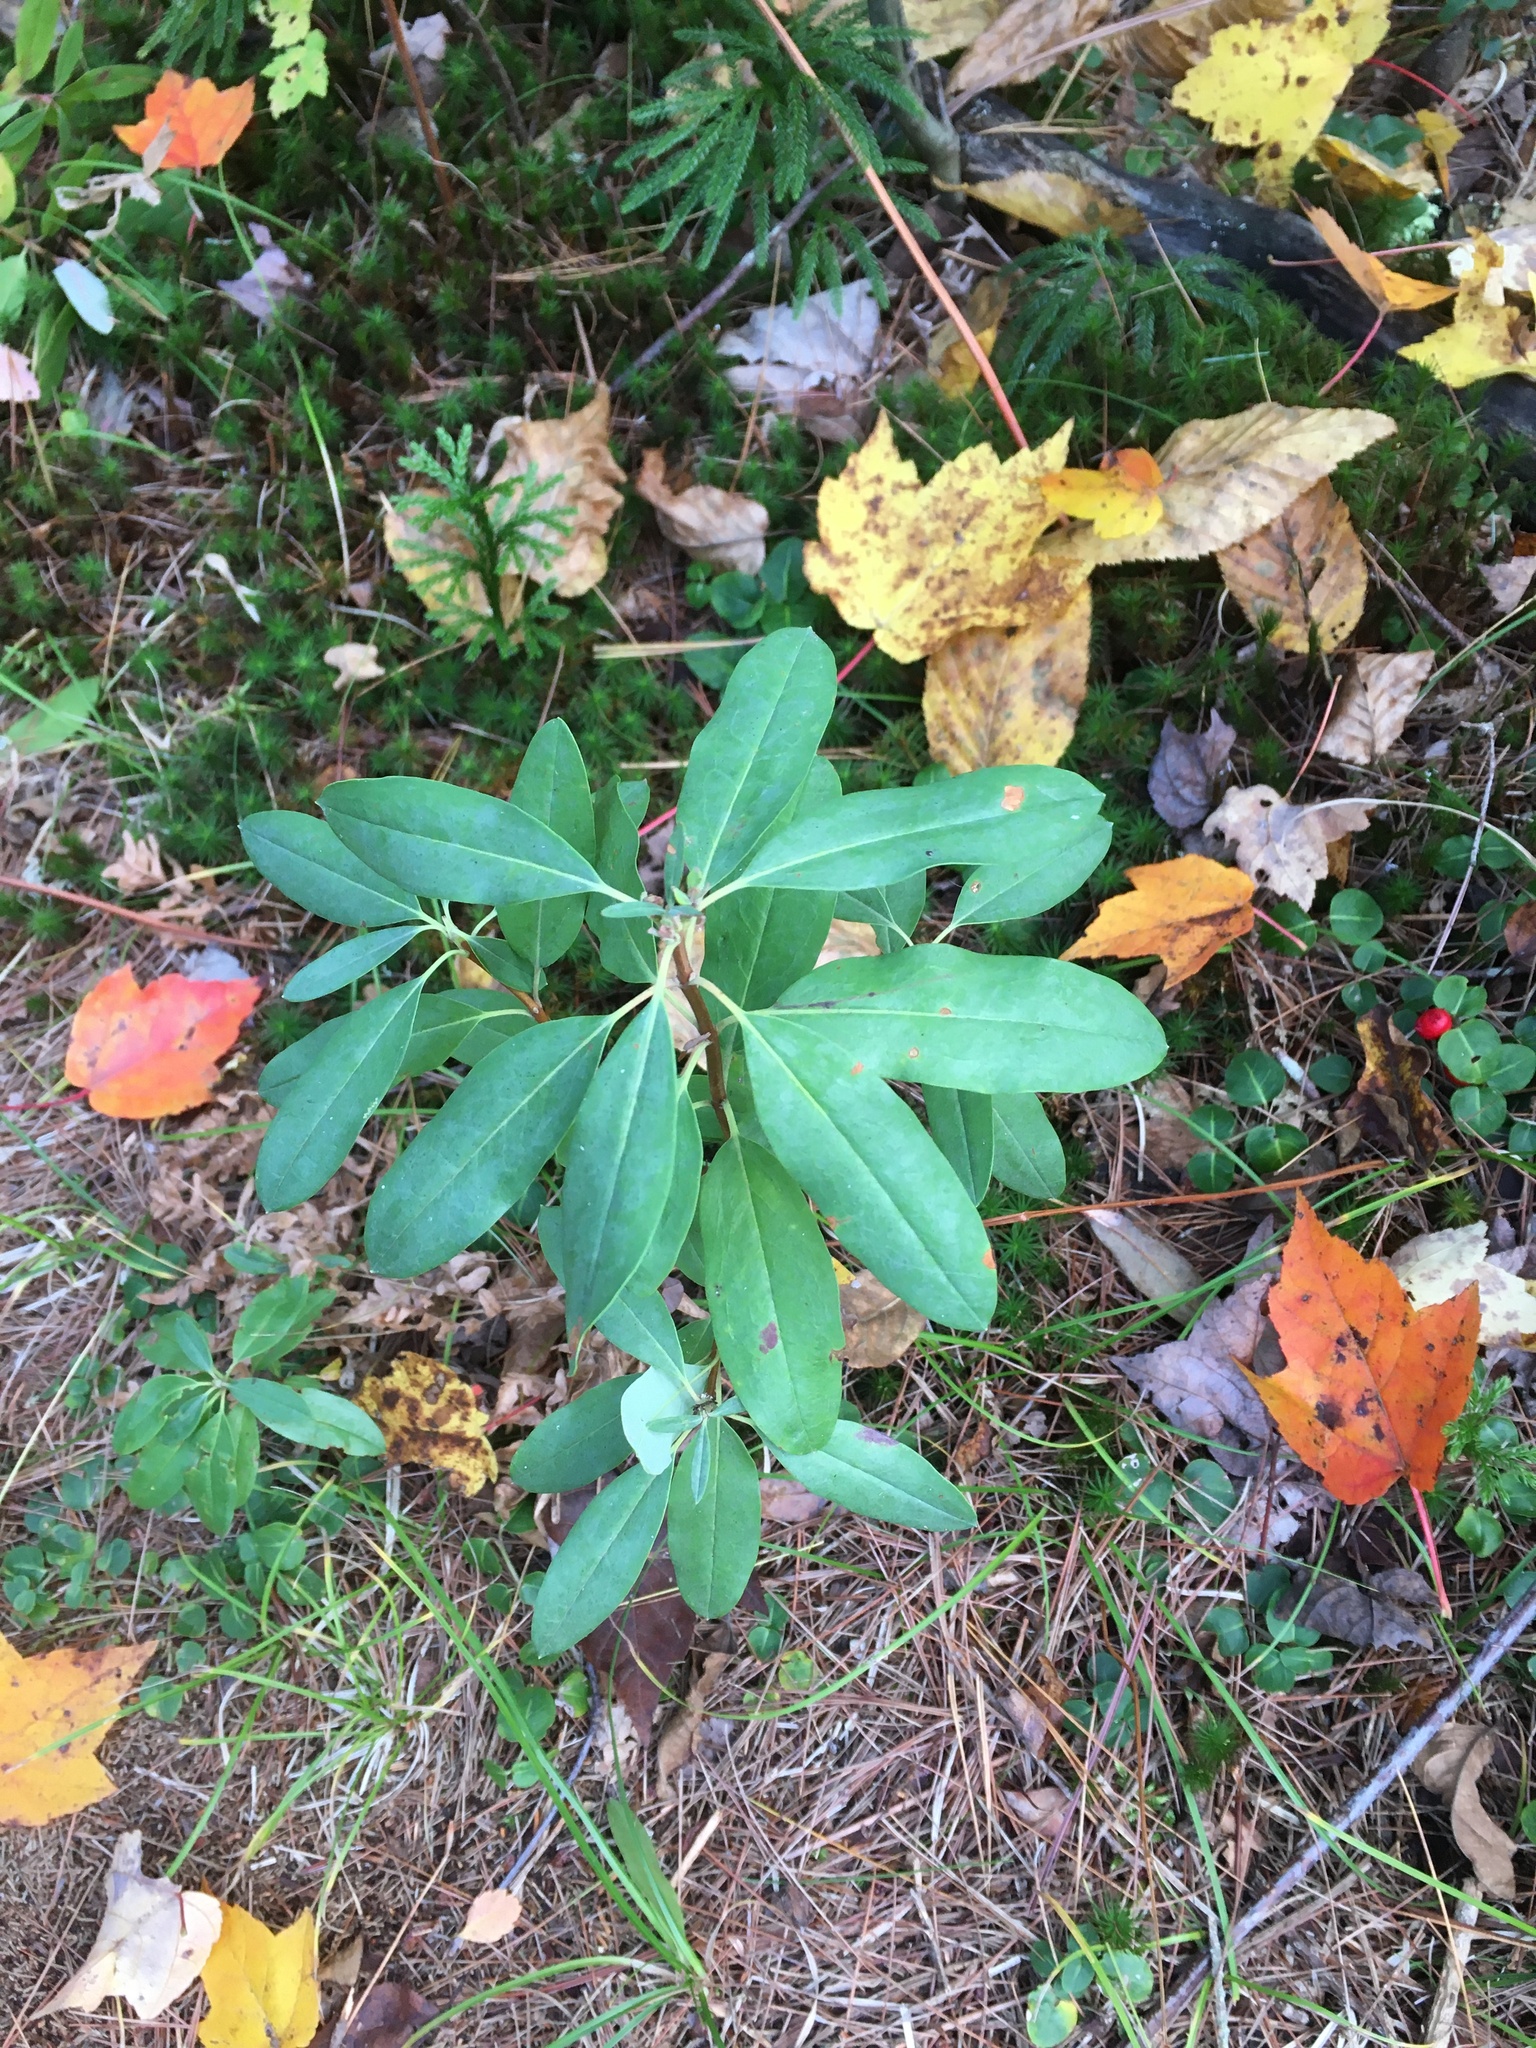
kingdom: Plantae
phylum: Tracheophyta
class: Magnoliopsida
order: Ericales
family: Ericaceae
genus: Kalmia
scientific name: Kalmia angustifolia
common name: Sheep-laurel
